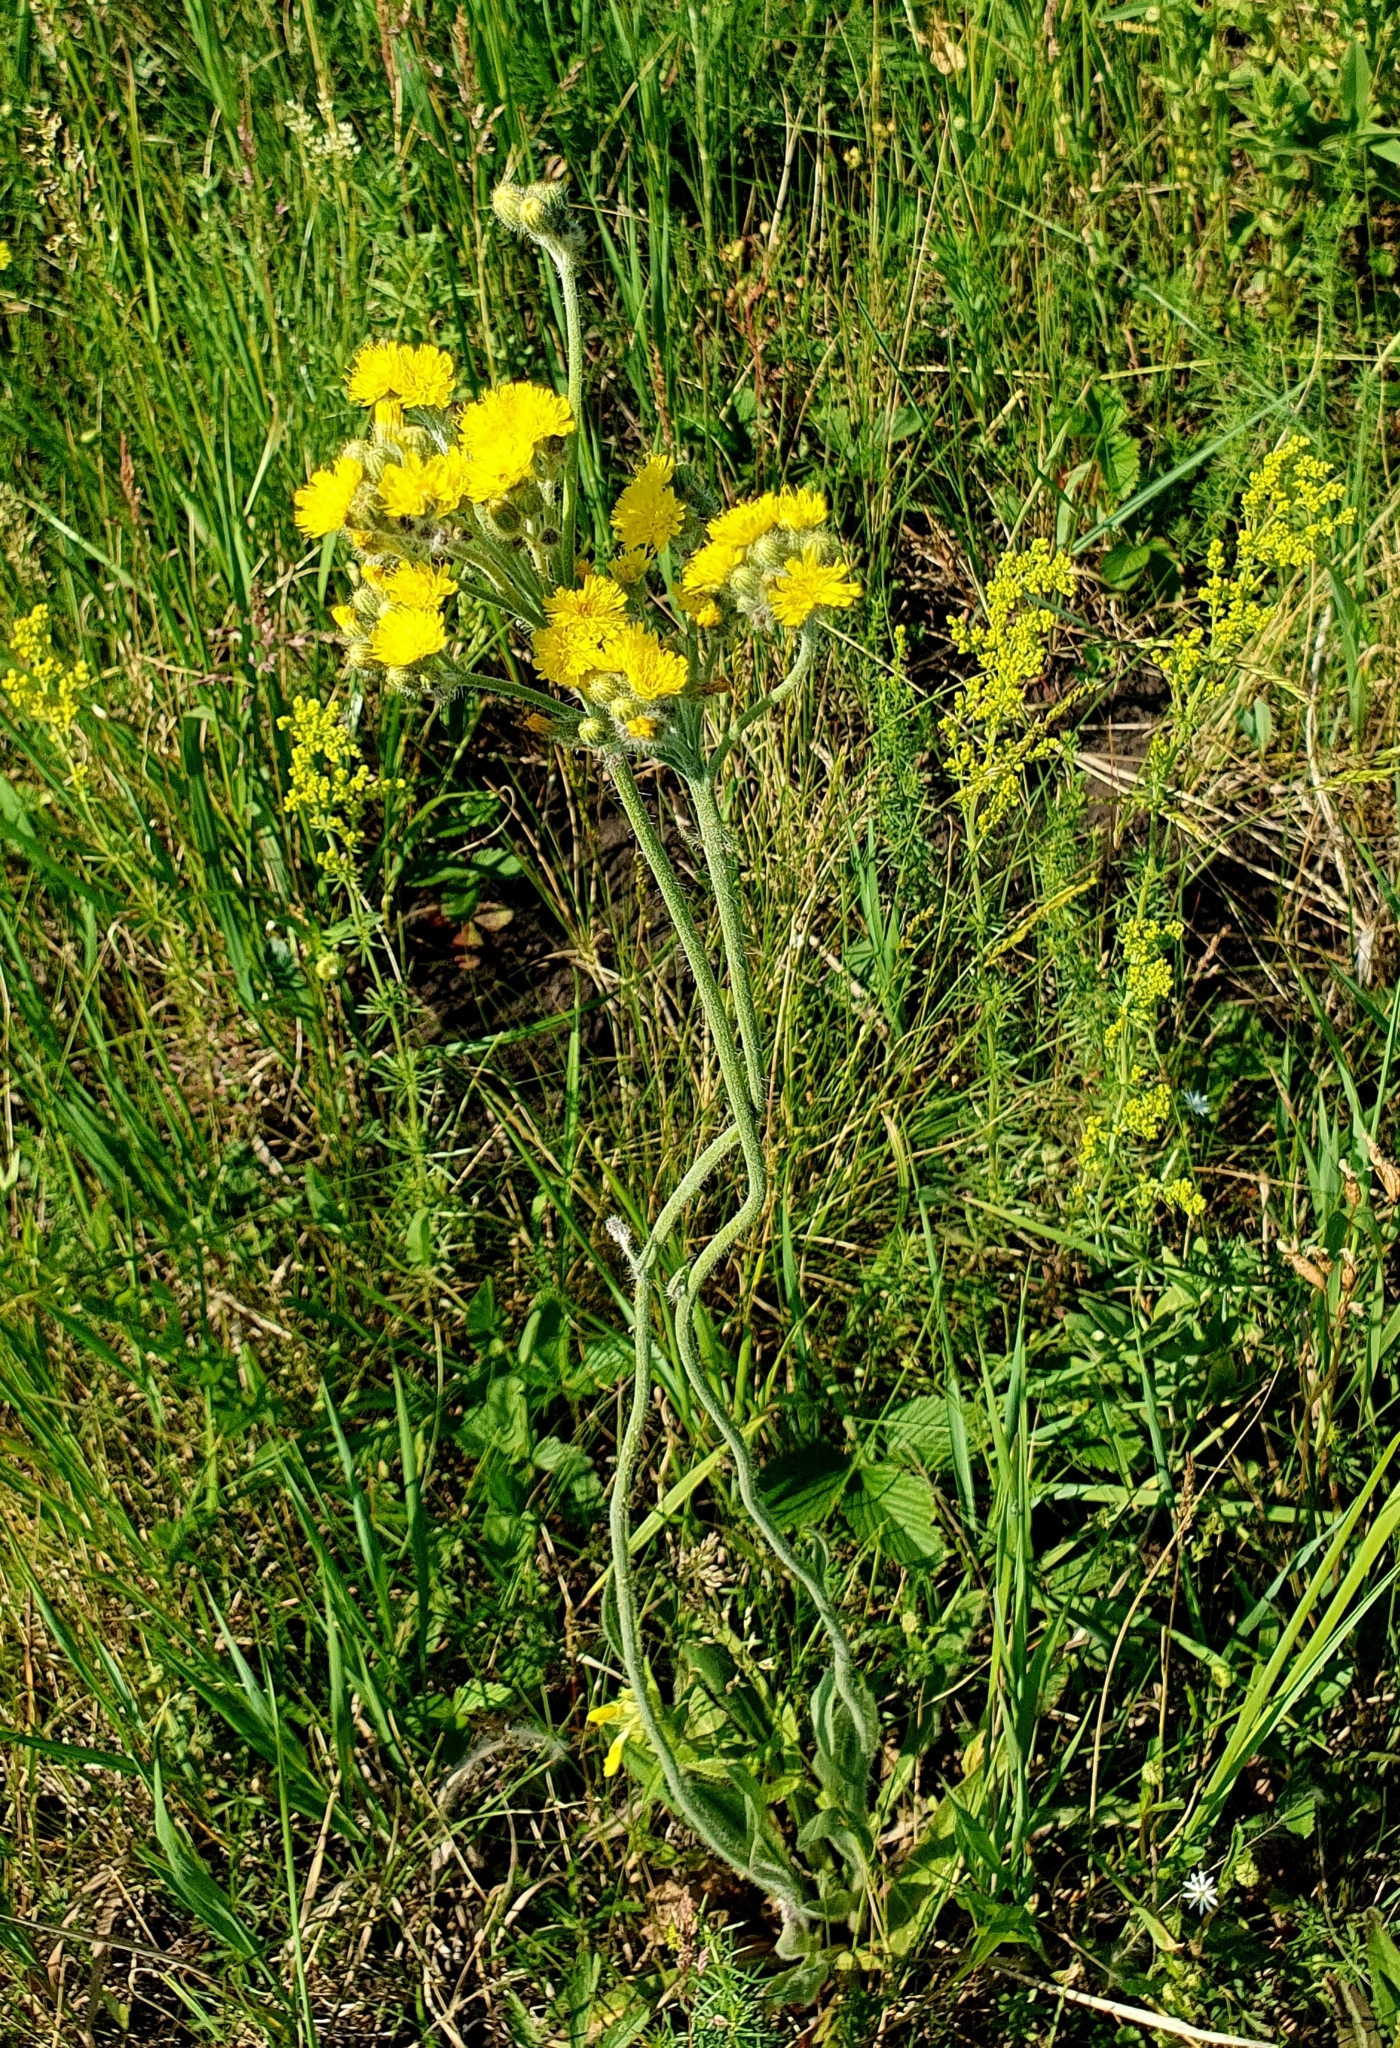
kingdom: Plantae
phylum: Tracheophyta
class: Magnoliopsida
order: Asterales
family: Asteraceae
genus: Pilosella
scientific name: Pilosella echioides
